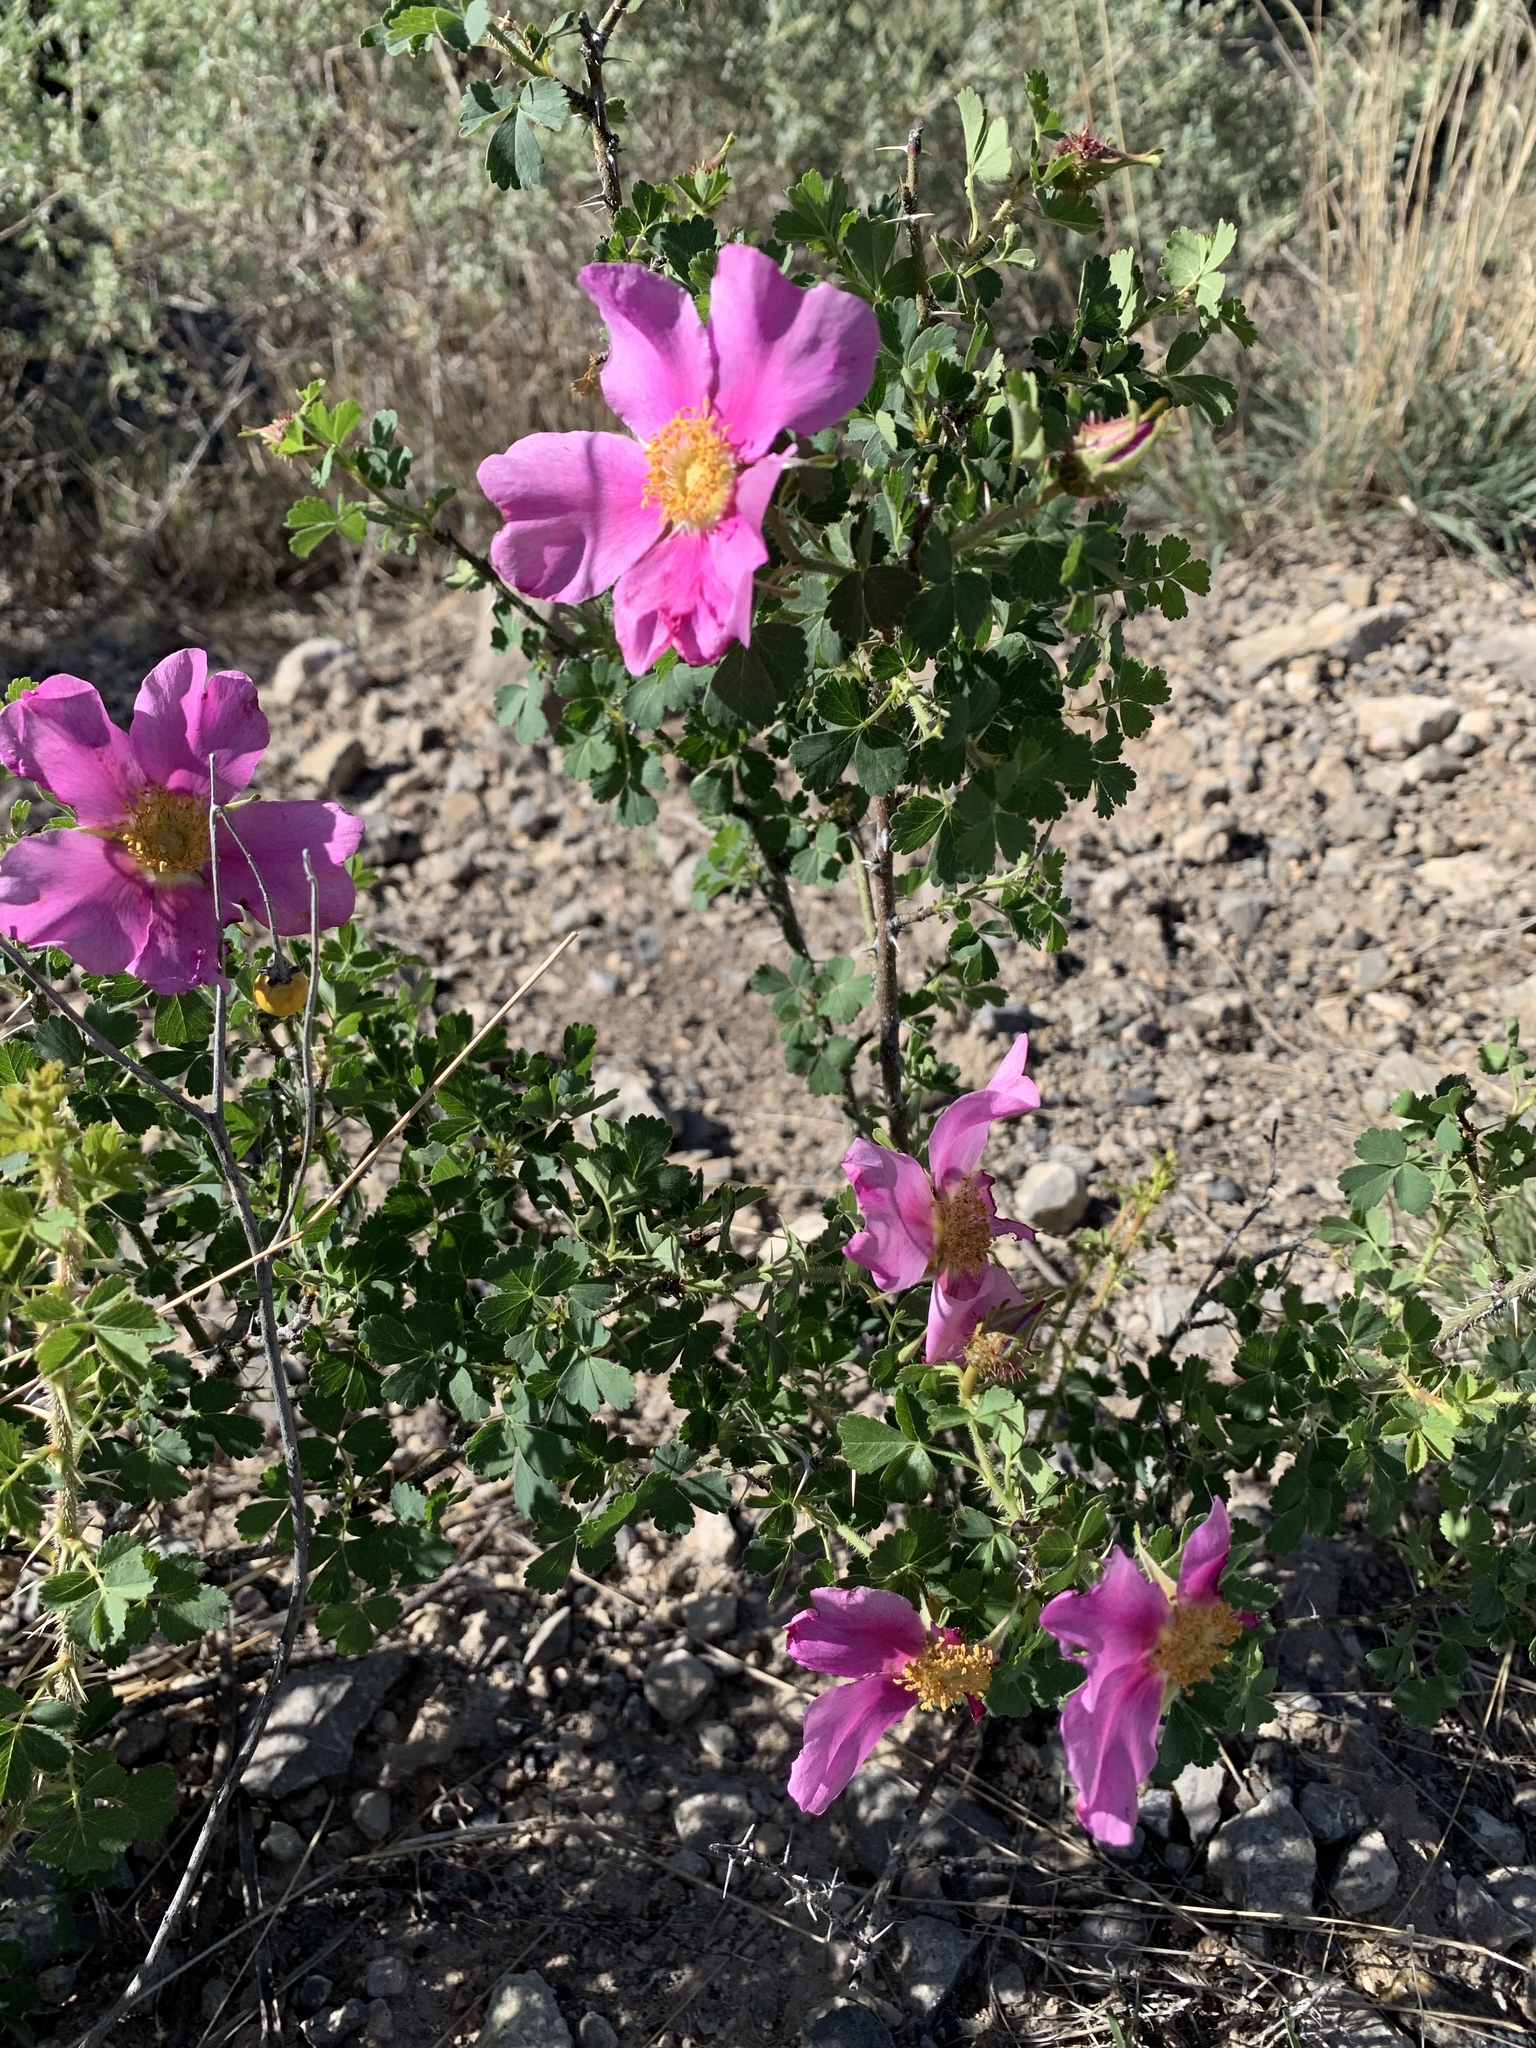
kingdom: Plantae
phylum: Tracheophyta
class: Magnoliopsida
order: Rosales
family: Rosaceae
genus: Rosa
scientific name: Rosa stellata
